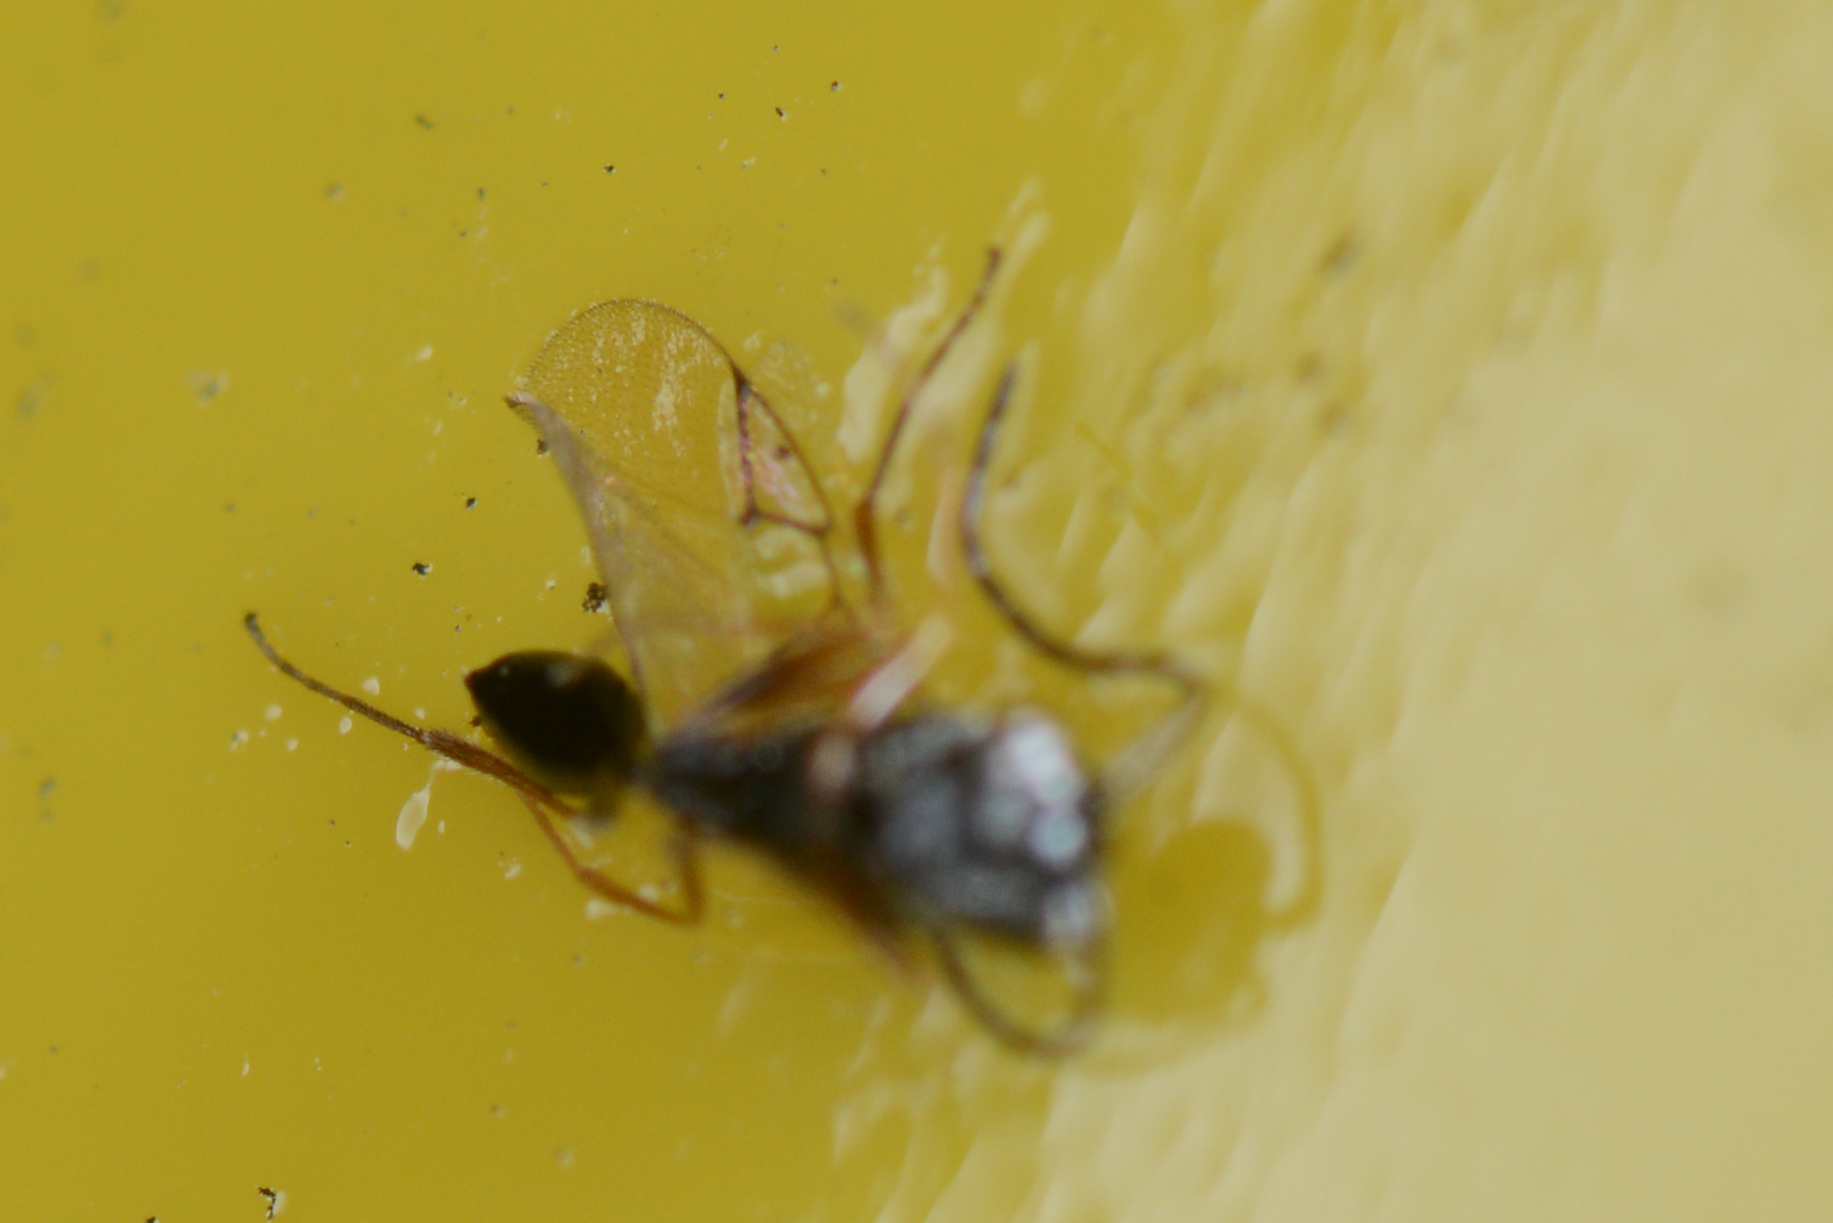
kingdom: Animalia
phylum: Arthropoda
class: Insecta
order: Hymenoptera
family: Figitidae
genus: Anacharis
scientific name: Anacharis zealandica
